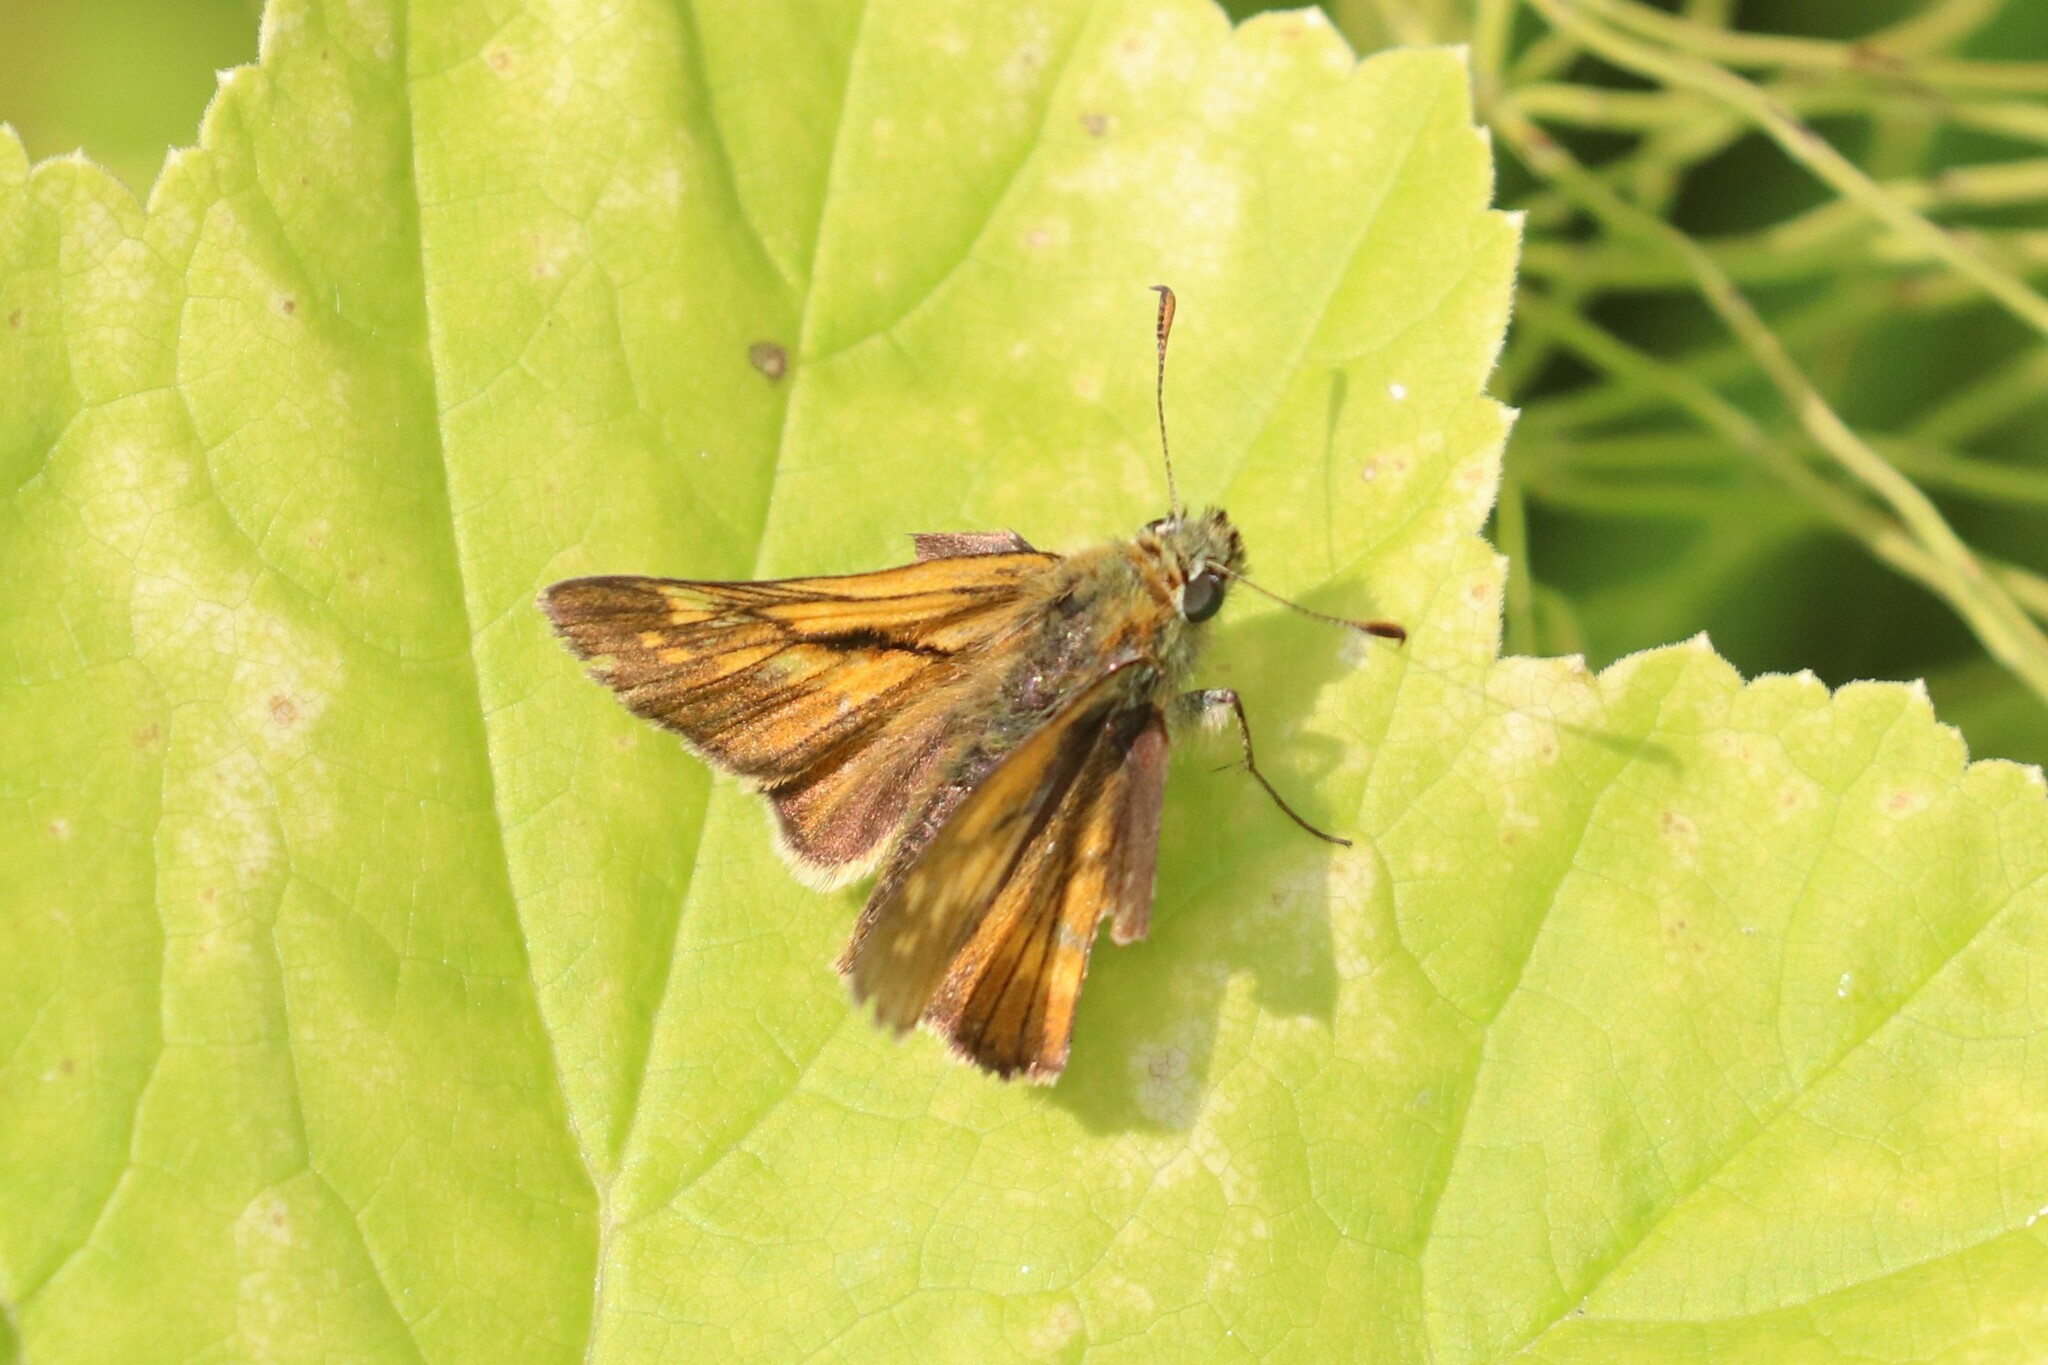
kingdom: Animalia
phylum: Arthropoda
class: Insecta
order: Lepidoptera
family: Hesperiidae
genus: Ochlodes
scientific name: Ochlodes venata
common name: Large skipper
